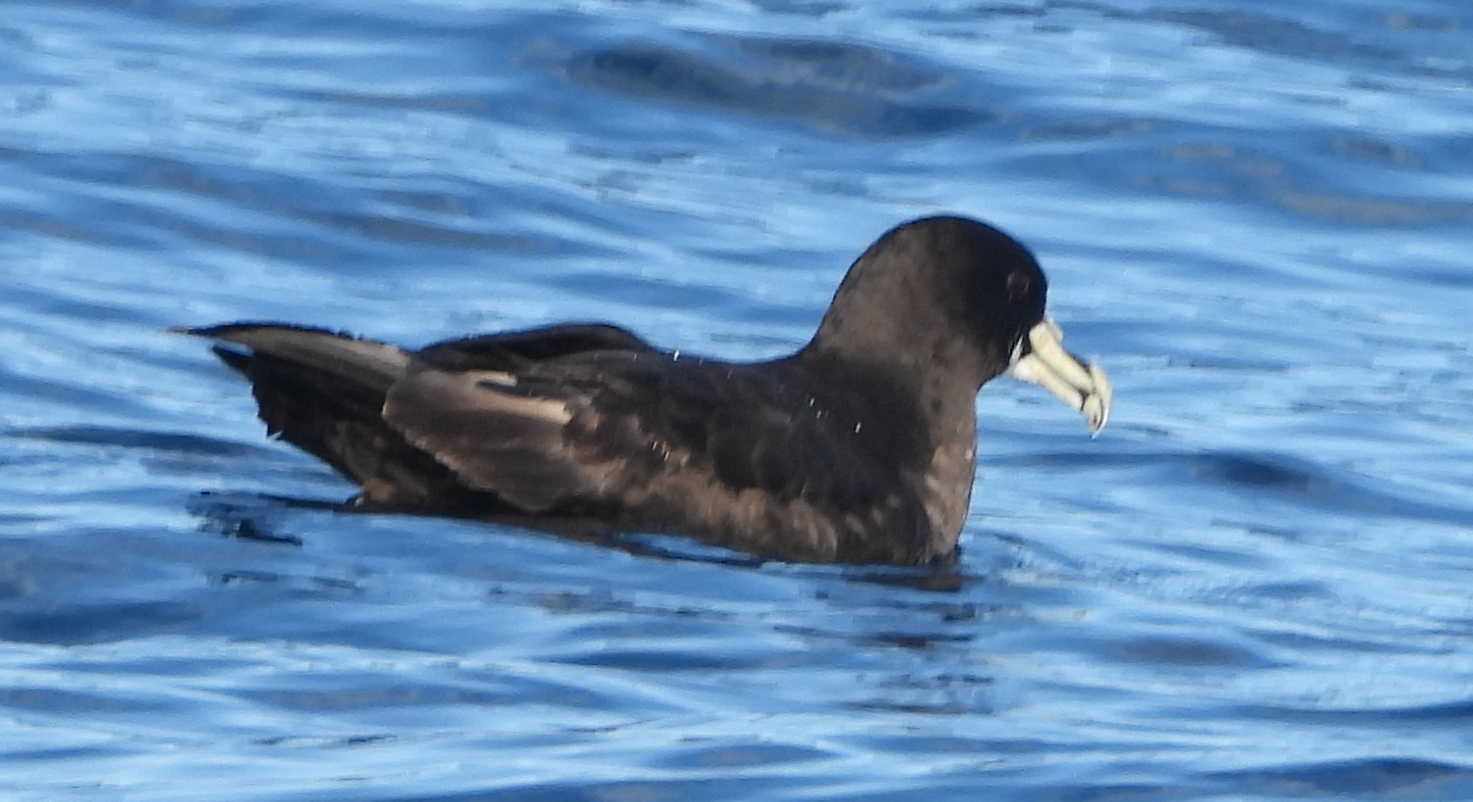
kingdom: Animalia
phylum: Chordata
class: Aves
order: Procellariiformes
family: Procellariidae
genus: Procellaria
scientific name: Procellaria aequinoctialis
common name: White-chinned petrel
